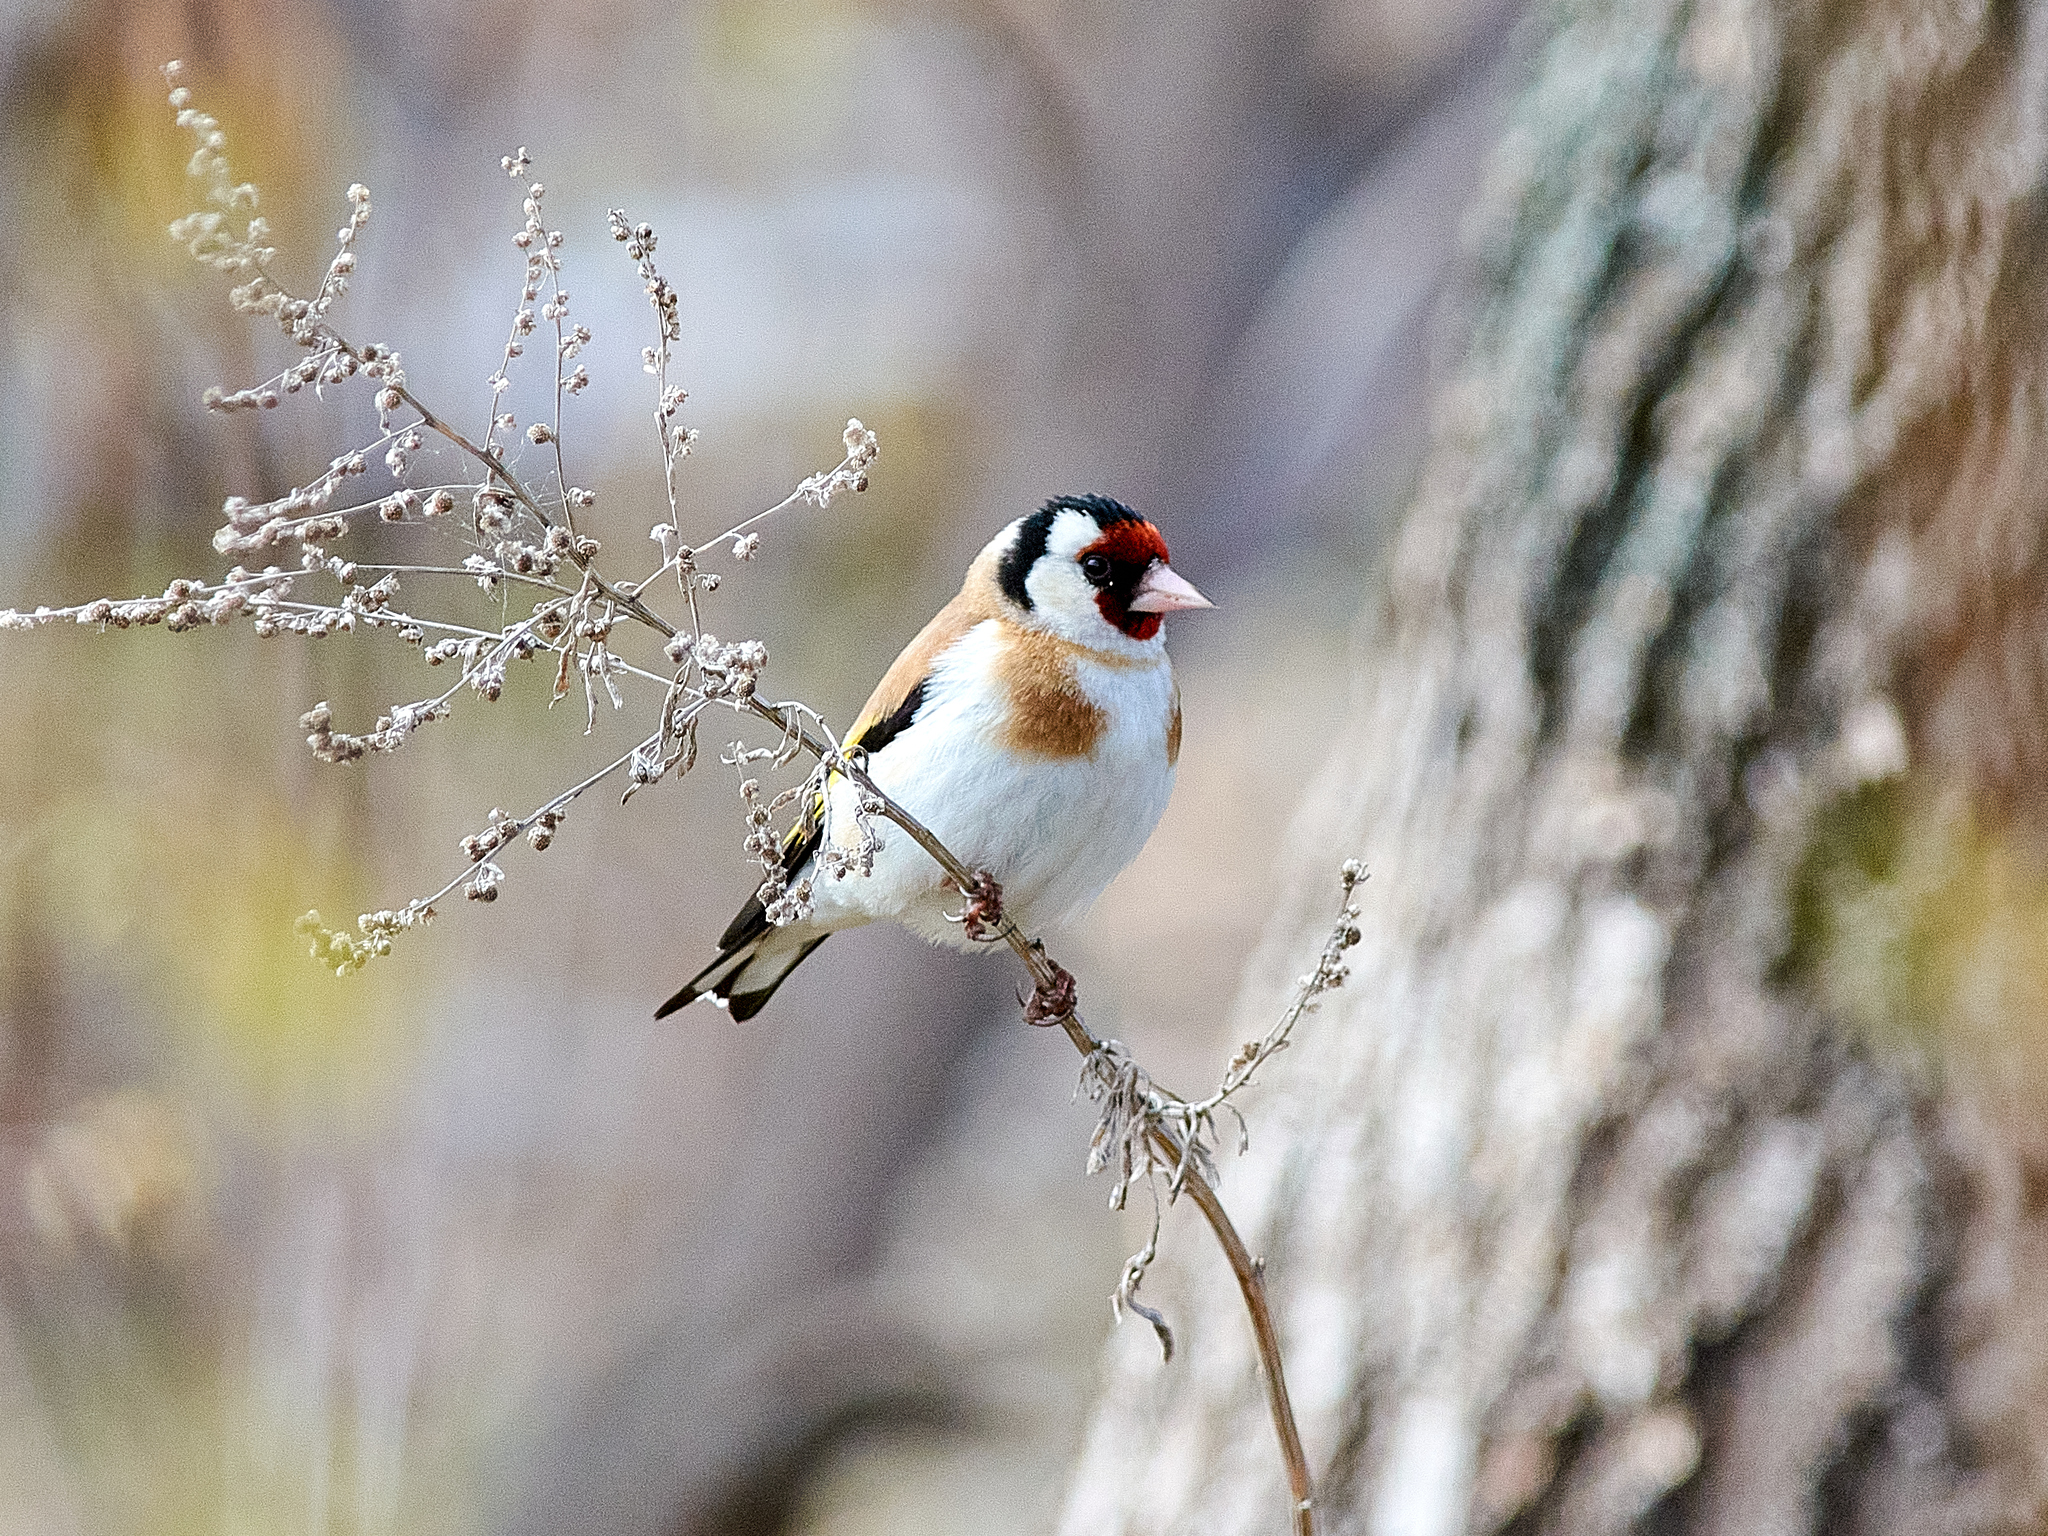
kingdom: Animalia
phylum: Chordata
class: Aves
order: Passeriformes
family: Fringillidae
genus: Carduelis
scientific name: Carduelis carduelis
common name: European goldfinch
